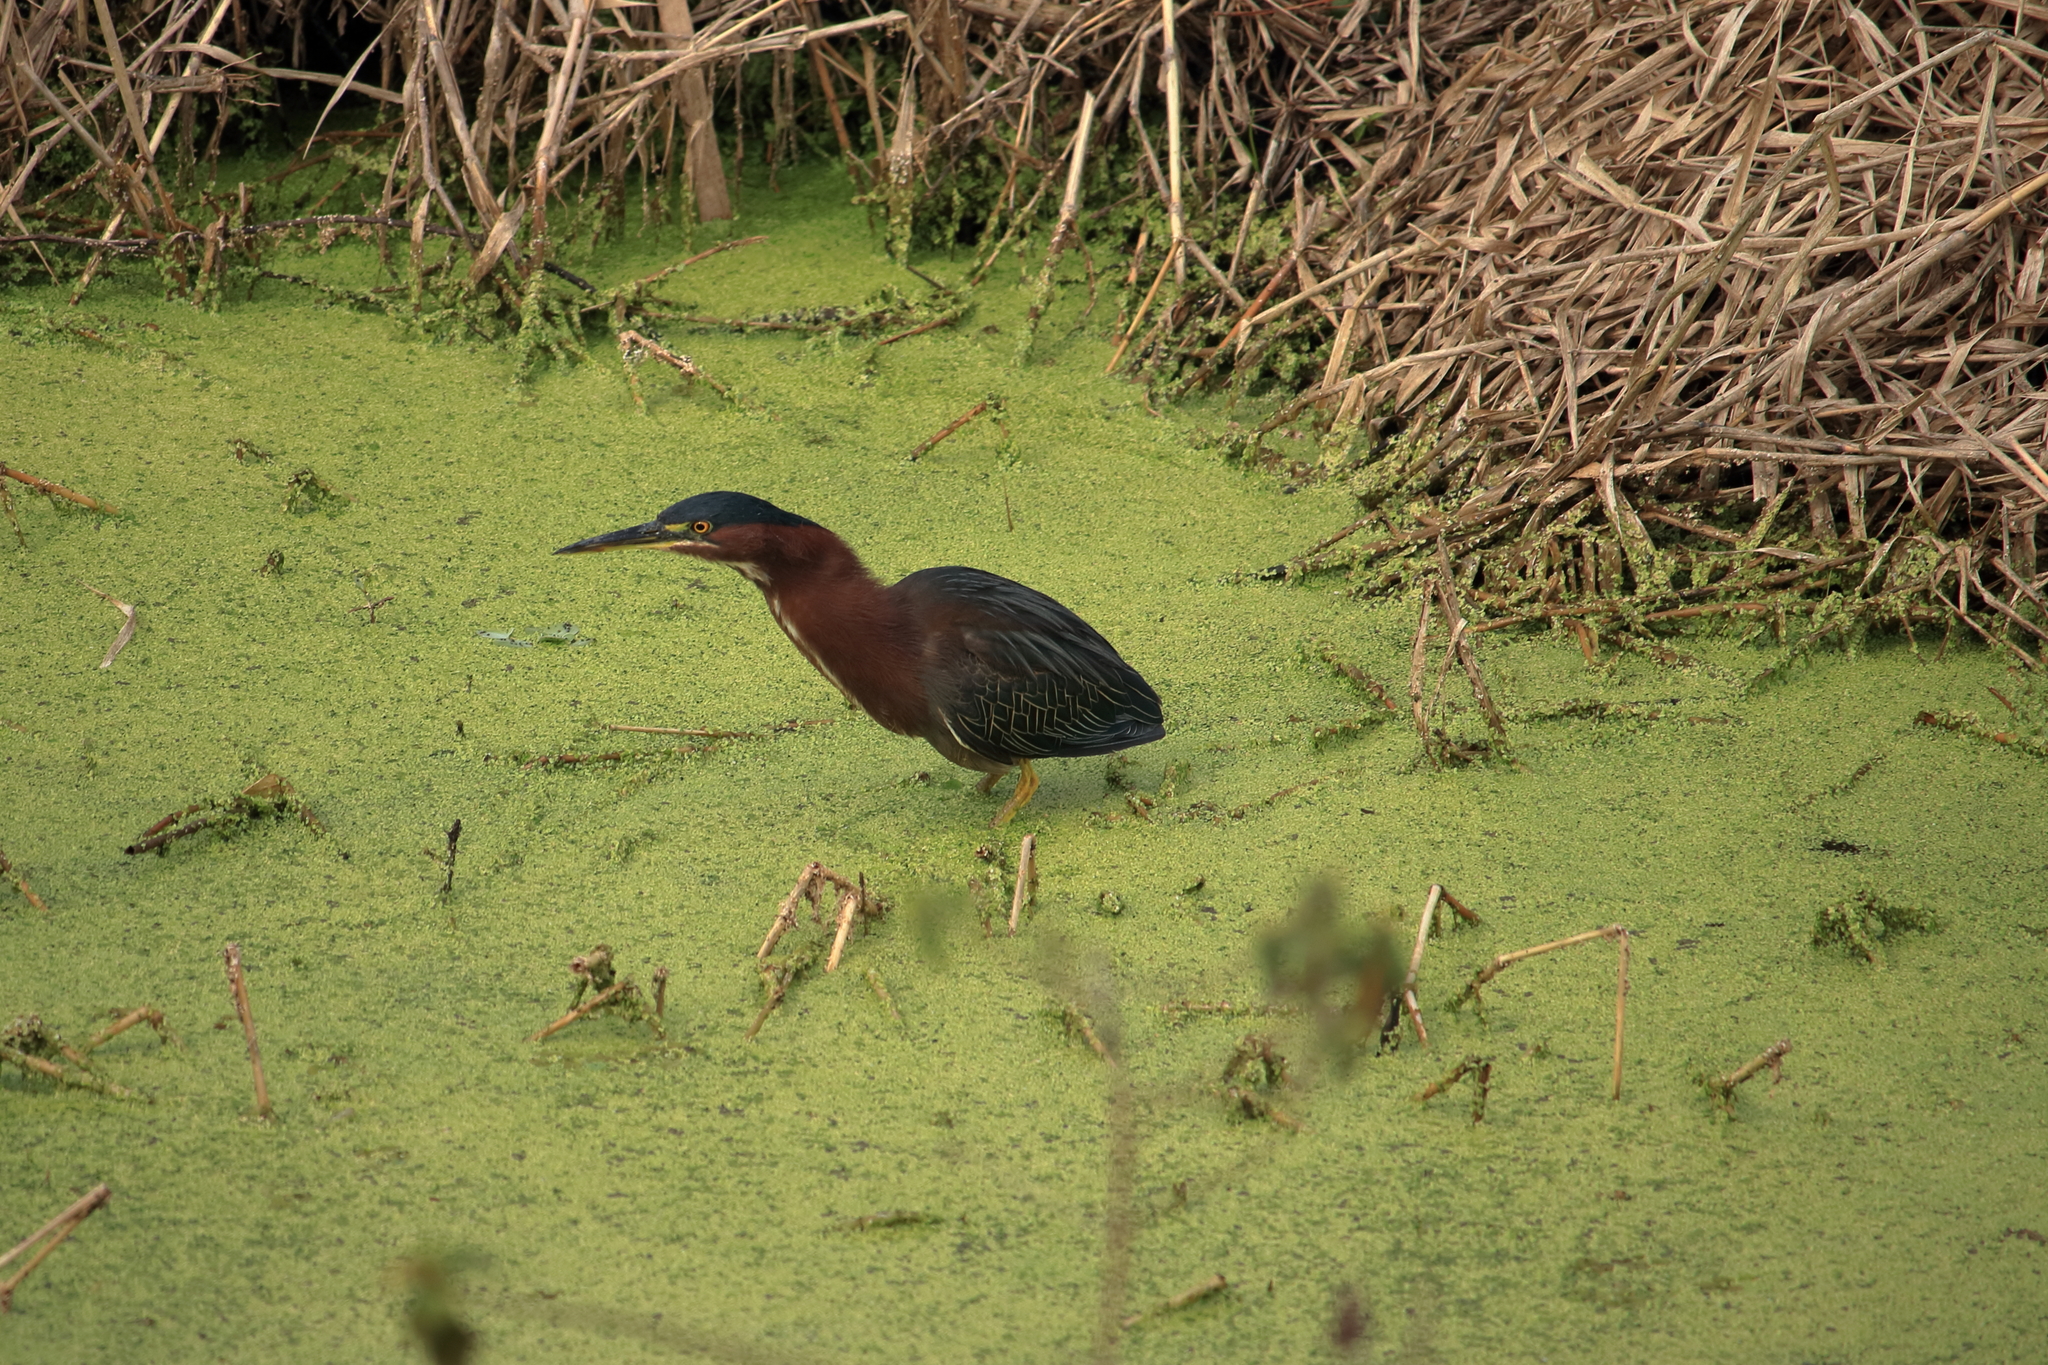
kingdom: Animalia
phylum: Chordata
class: Aves
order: Pelecaniformes
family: Ardeidae
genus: Butorides
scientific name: Butorides virescens
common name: Green heron
